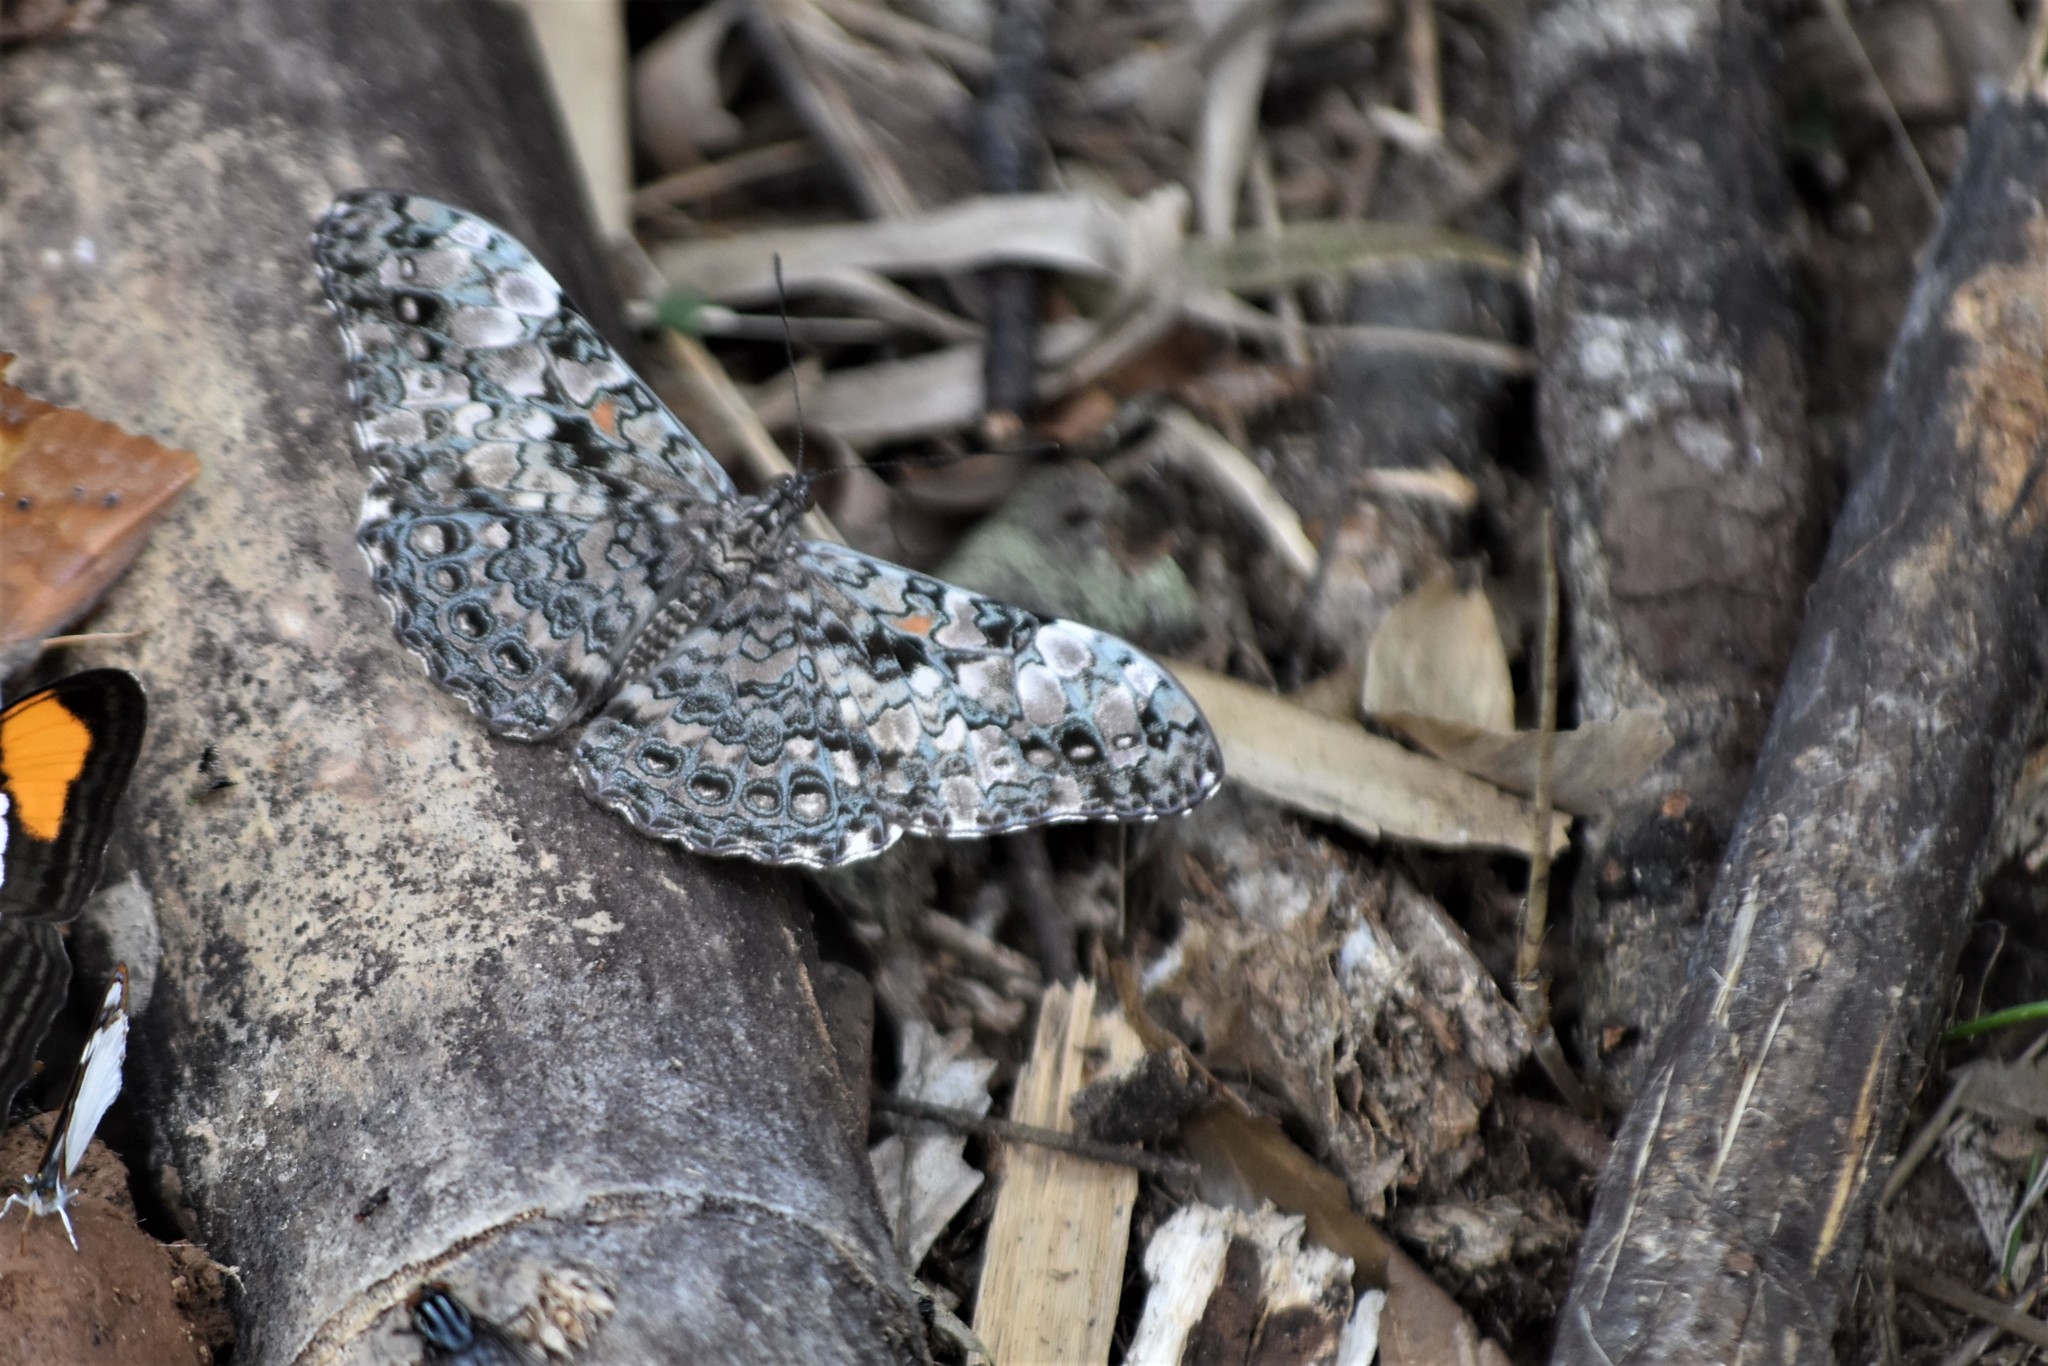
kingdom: Animalia
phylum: Arthropoda
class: Insecta
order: Lepidoptera
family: Nymphalidae
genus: Hamadryas
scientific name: Hamadryas epinome
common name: Epinome cracker
